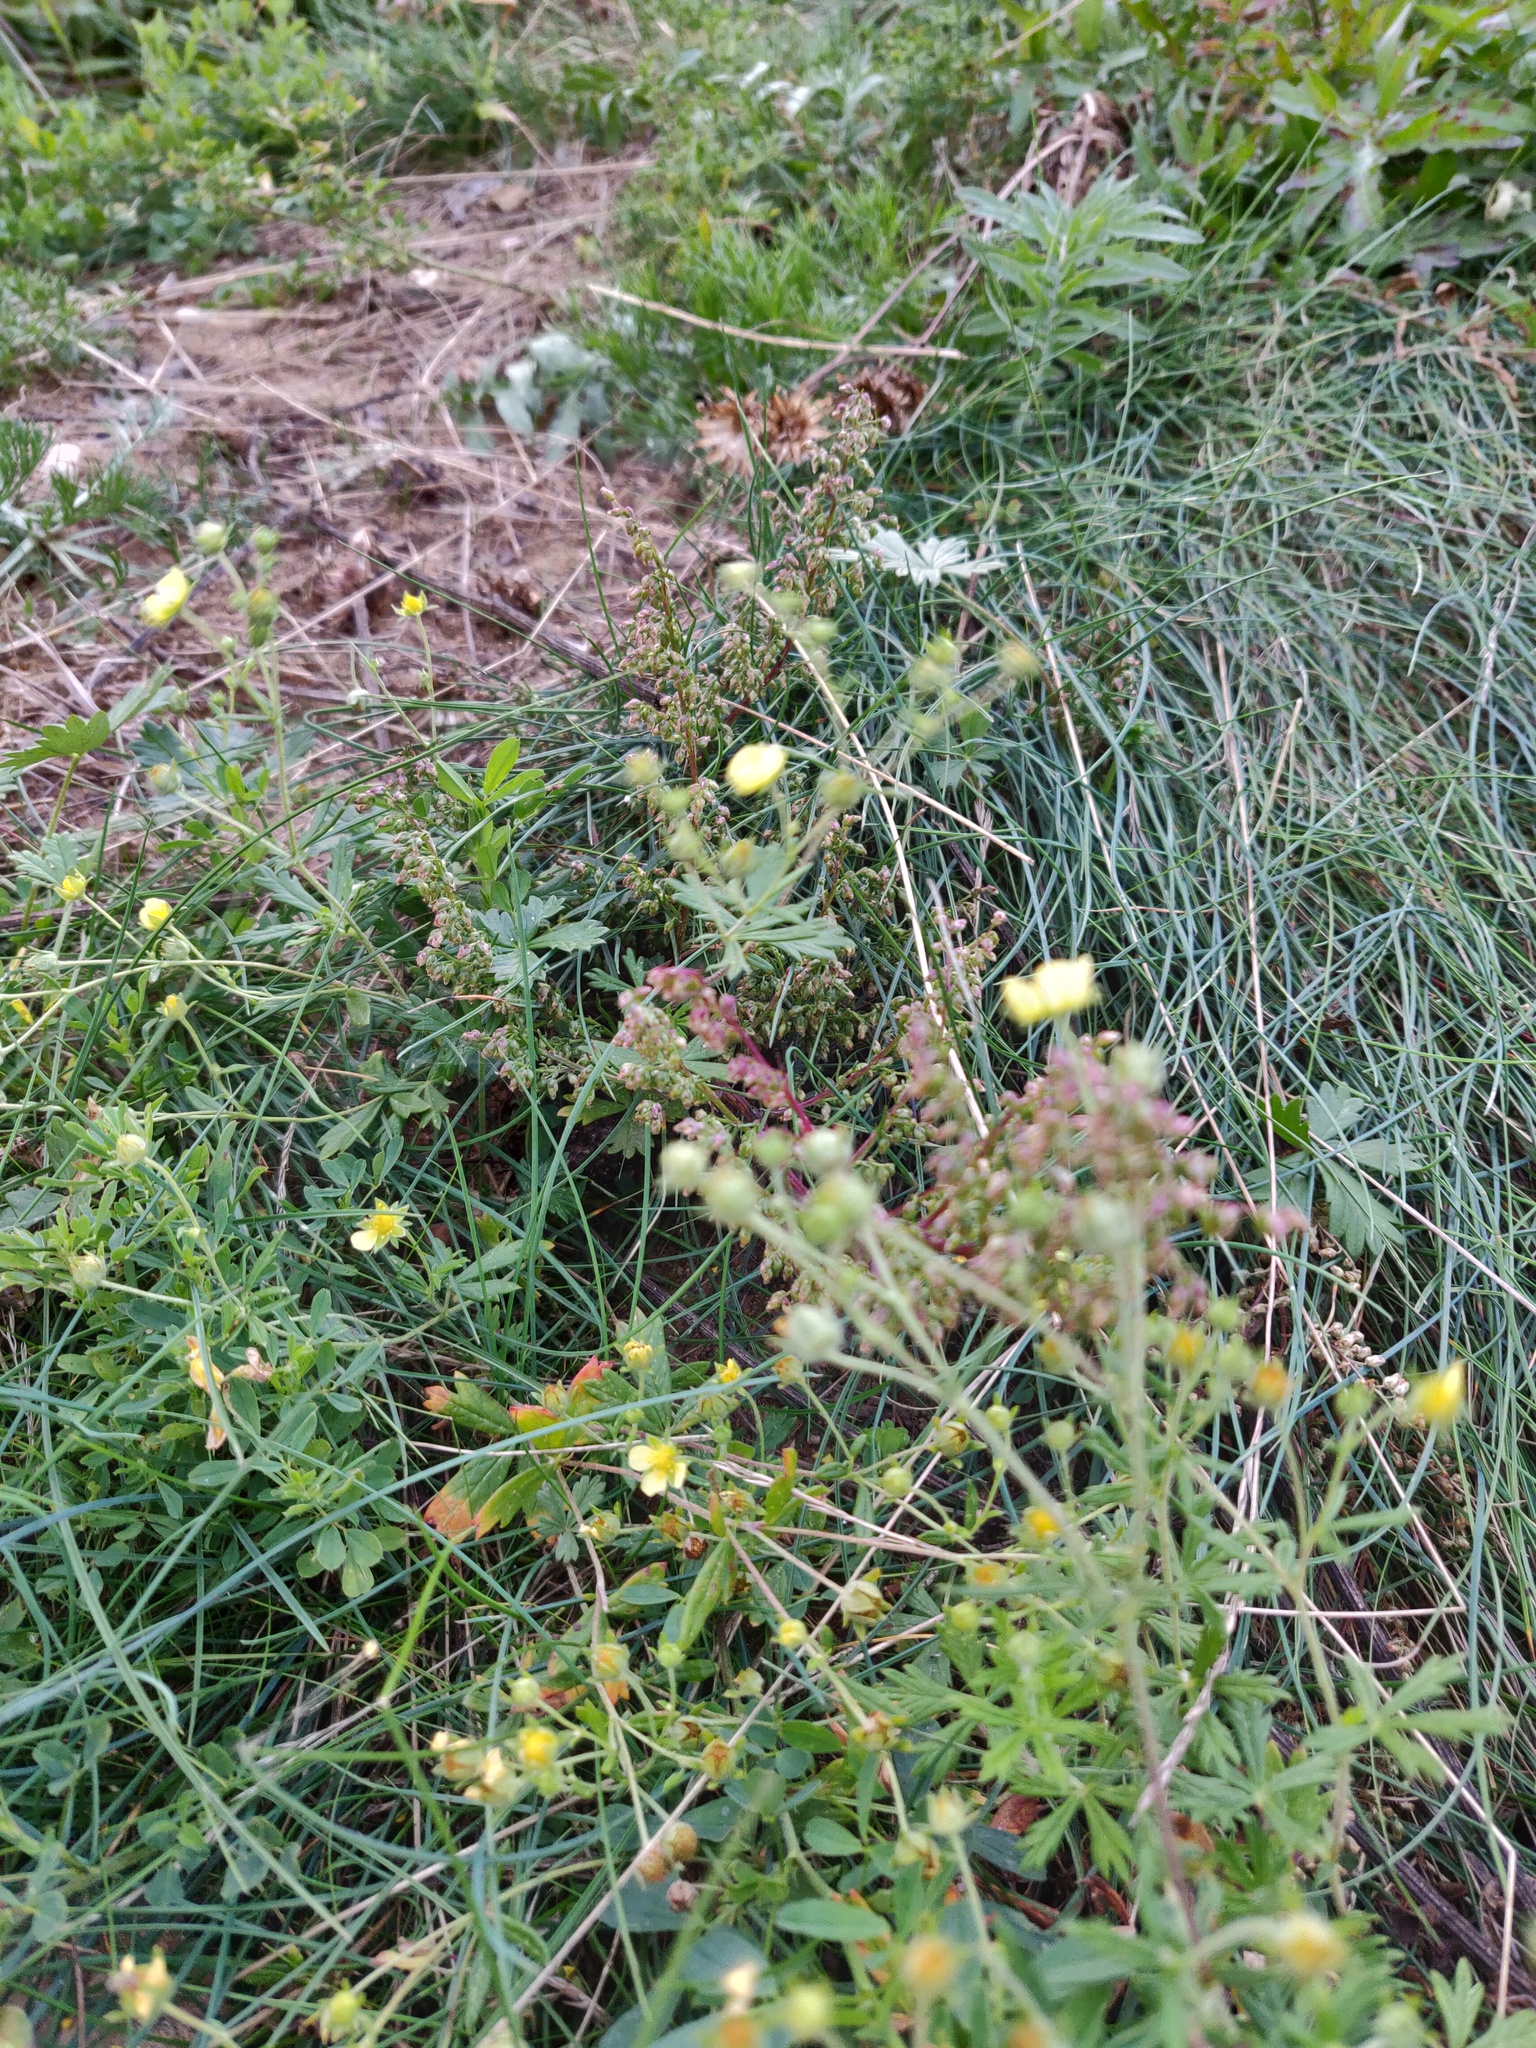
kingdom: Plantae
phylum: Tracheophyta
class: Magnoliopsida
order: Rosales
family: Rosaceae
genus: Potentilla
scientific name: Potentilla argentea
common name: Hoary cinquefoil
